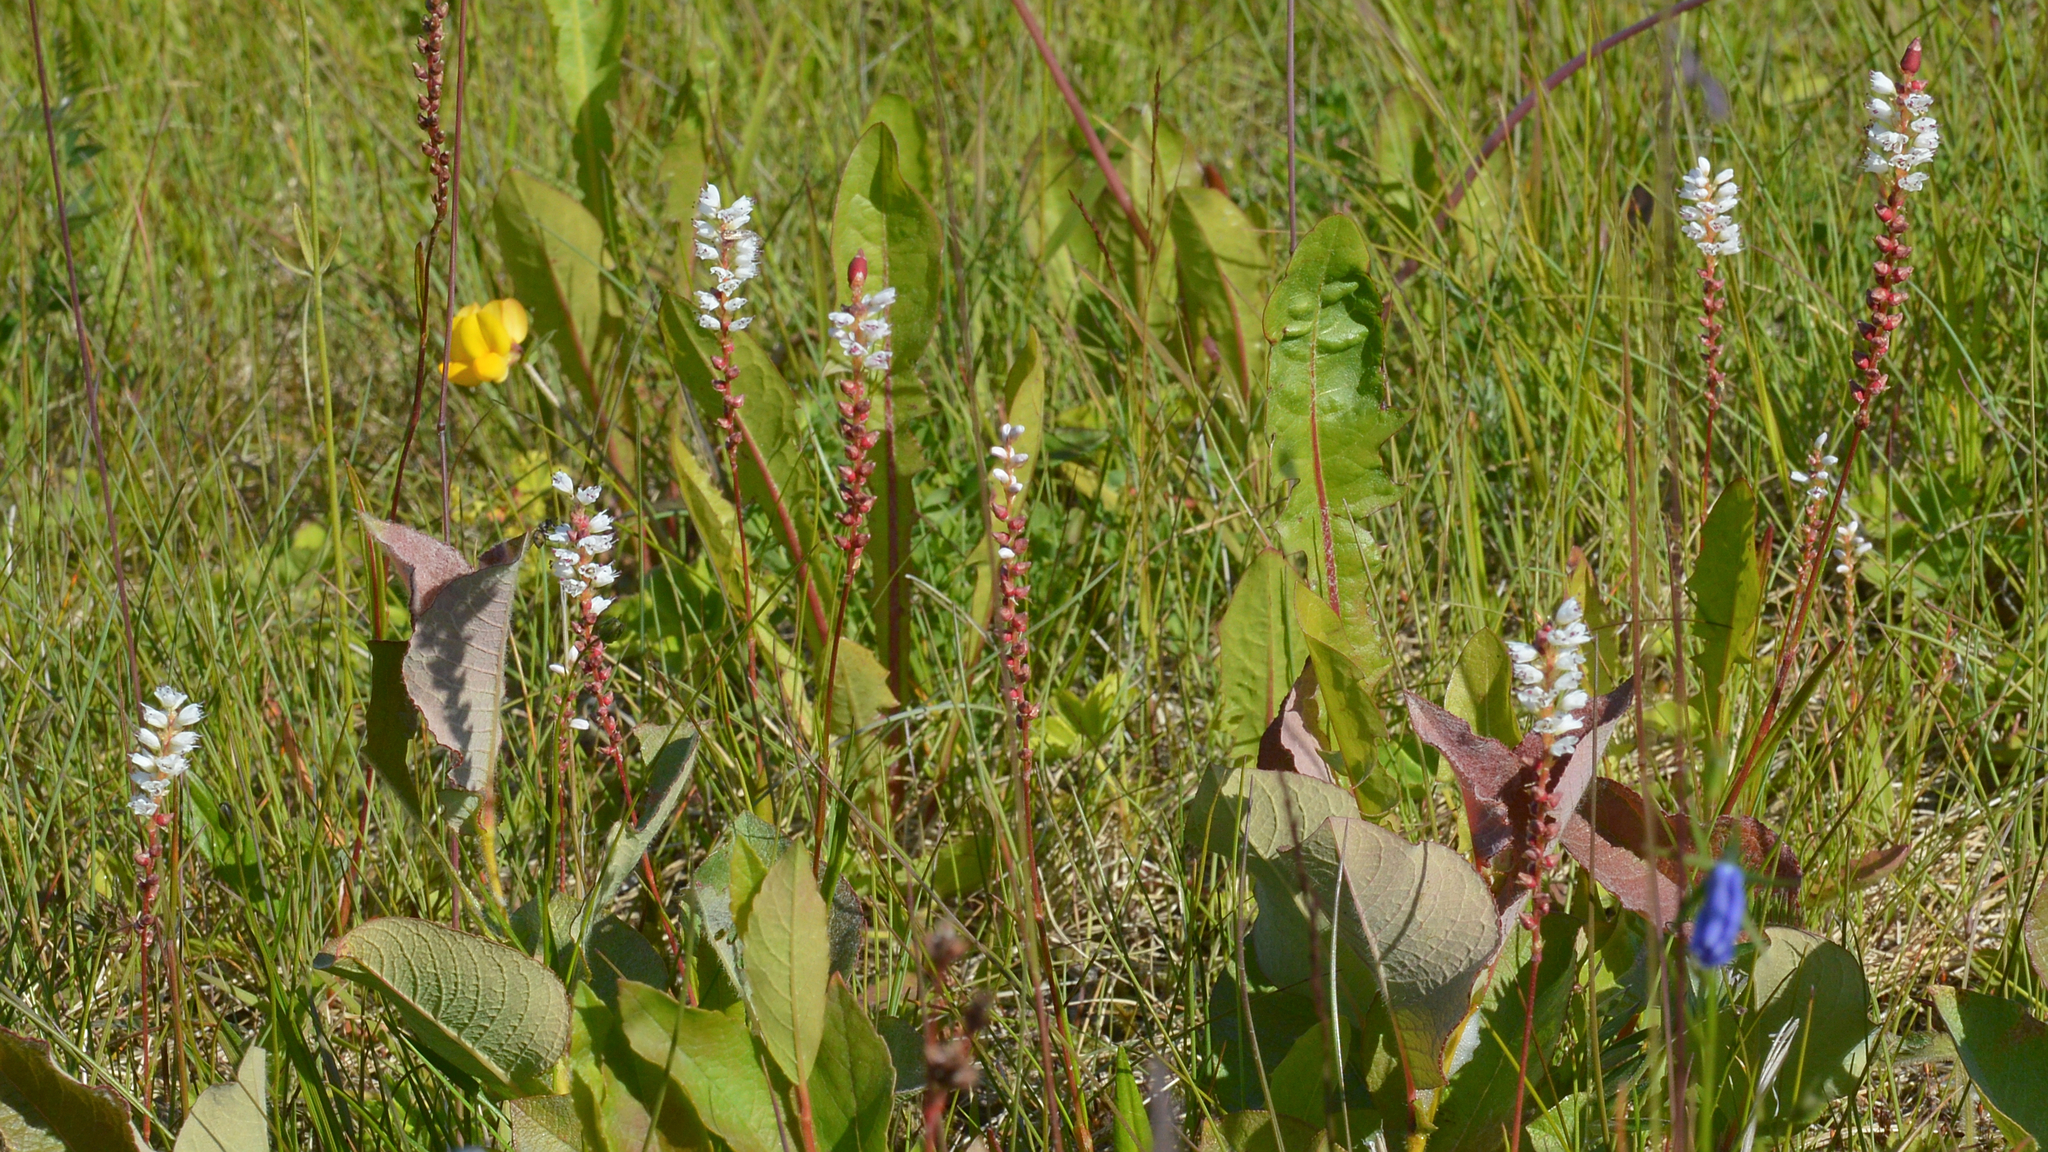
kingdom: Plantae
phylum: Tracheophyta
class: Magnoliopsida
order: Caryophyllales
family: Polygonaceae
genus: Bistorta
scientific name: Bistorta vivipara
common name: Alpine bistort
